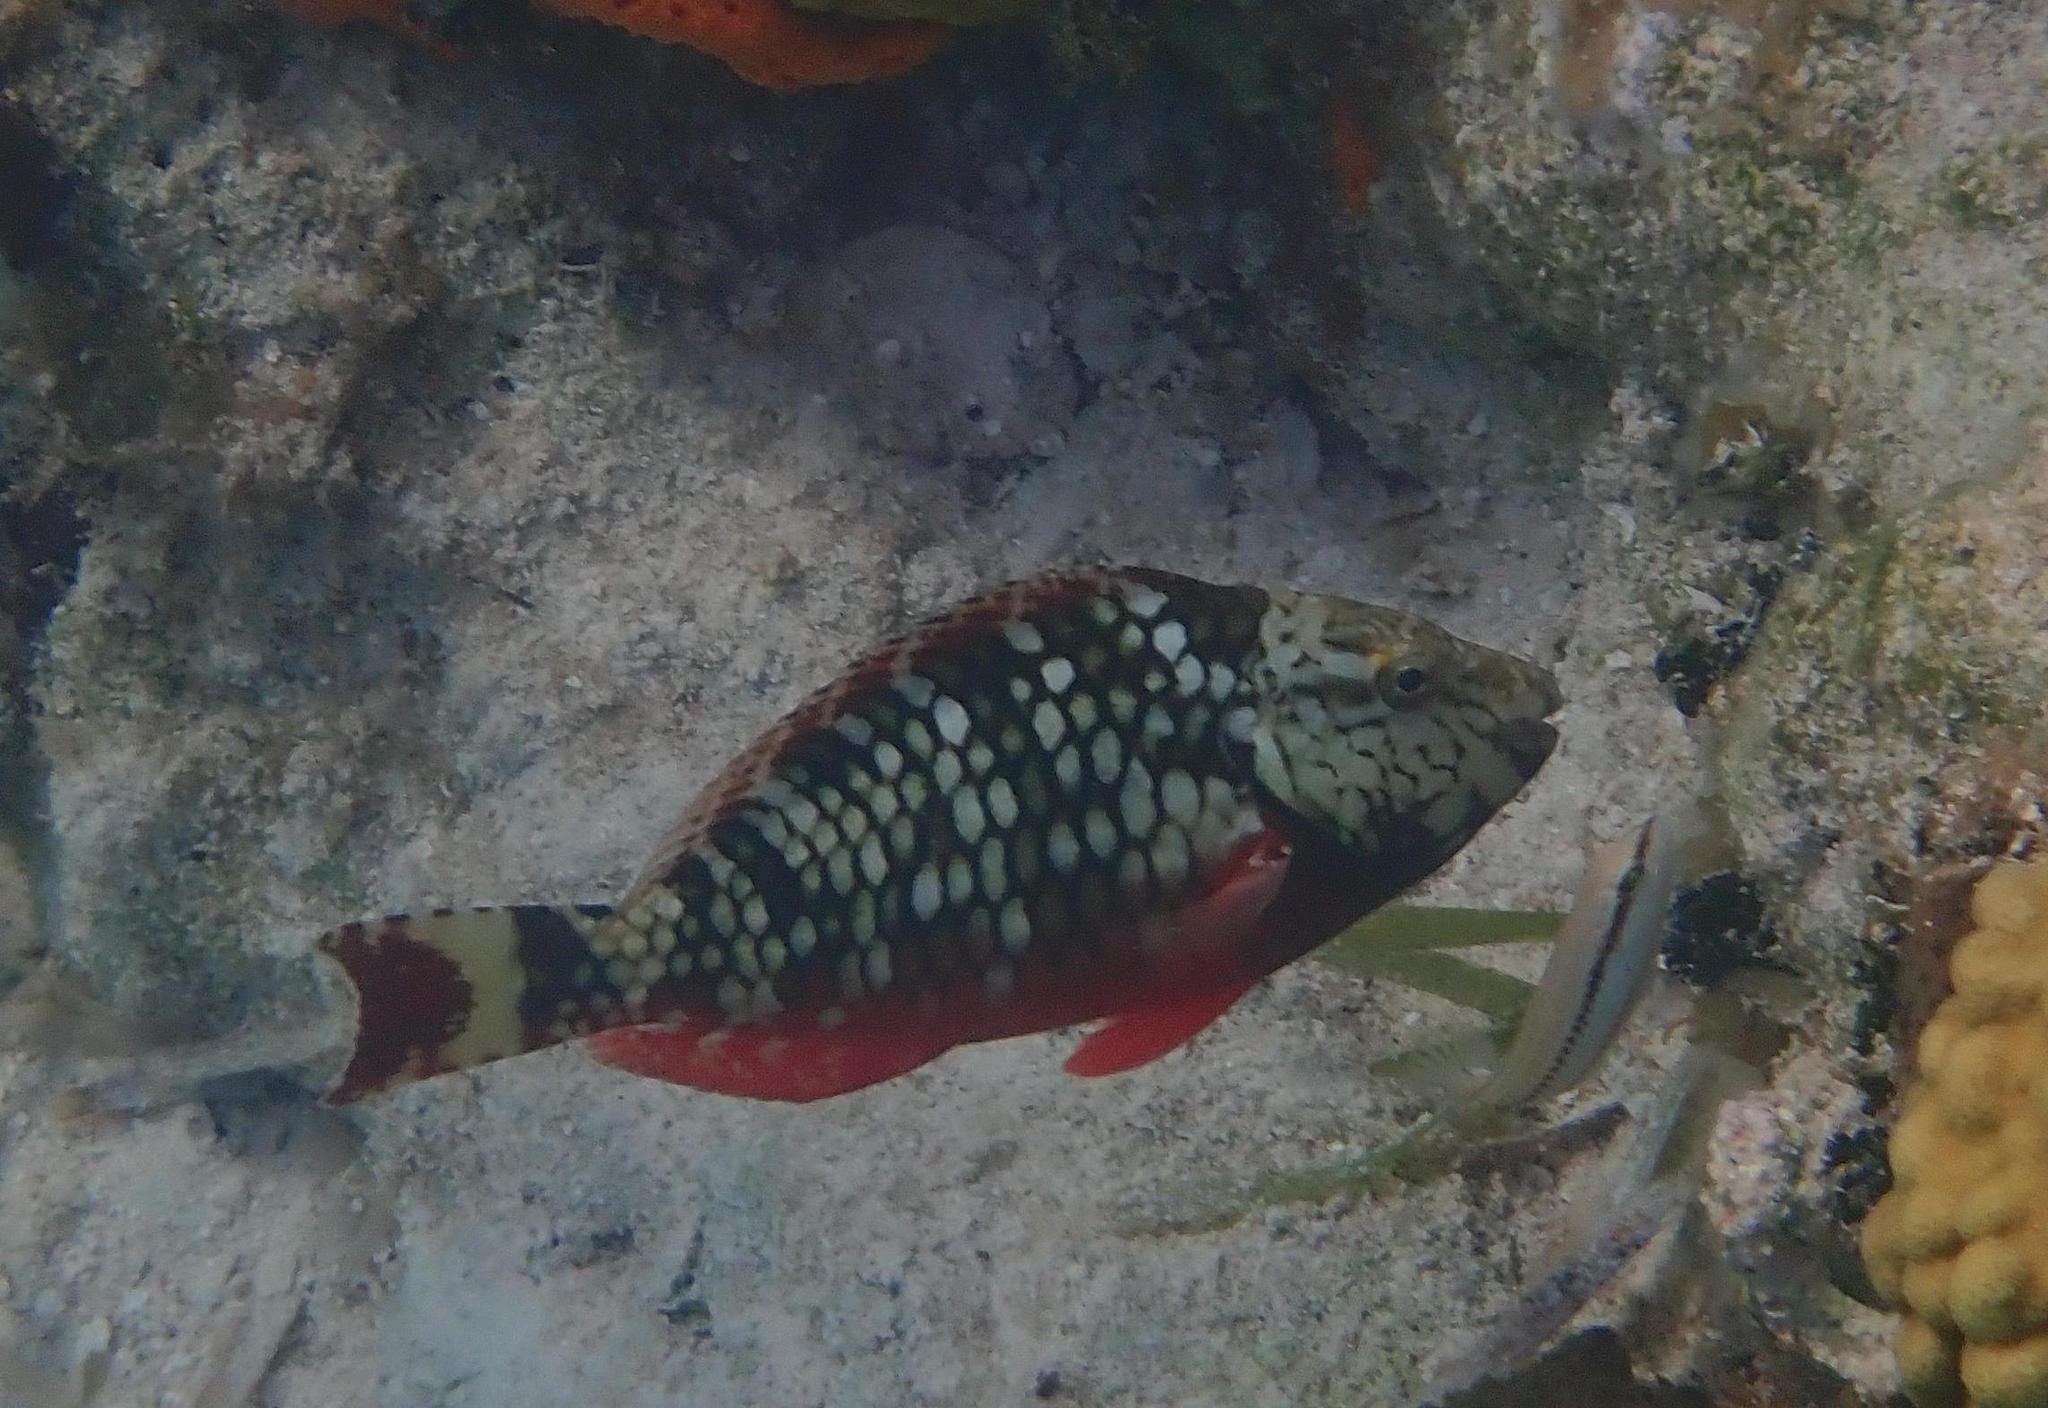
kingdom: Animalia
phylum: Chordata
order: Perciformes
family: Scaridae
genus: Sparisoma
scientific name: Sparisoma viride
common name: Stoplight parrotfish
